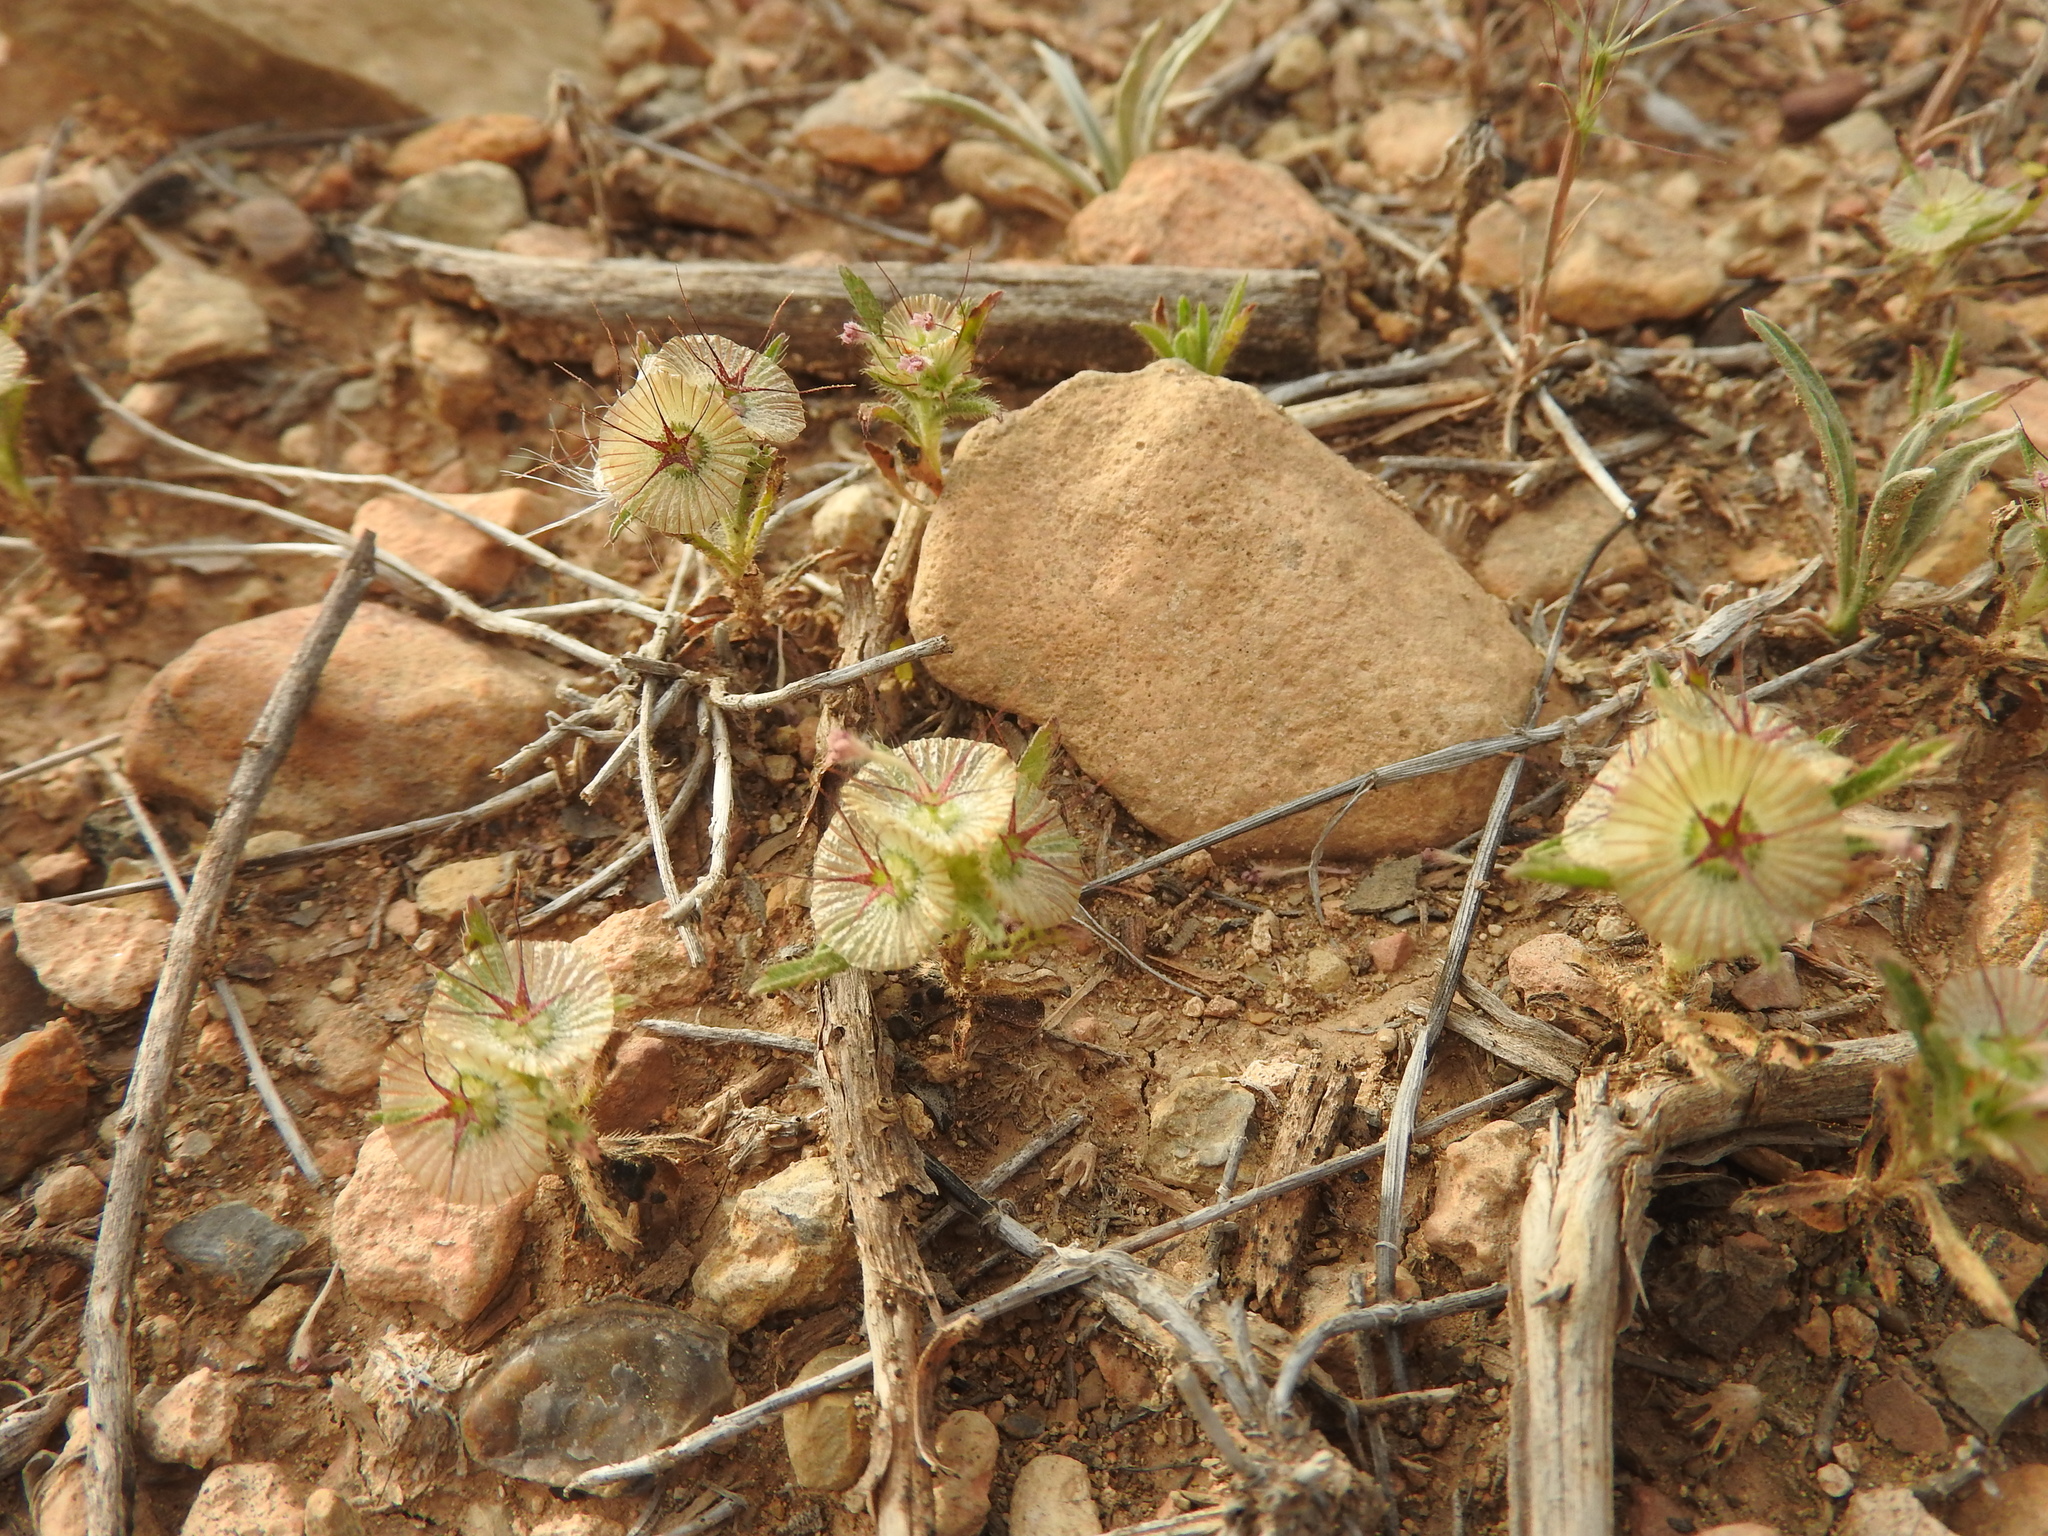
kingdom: Plantae
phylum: Tracheophyta
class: Magnoliopsida
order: Dipsacales
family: Caprifoliaceae
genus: Lomelosia
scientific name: Lomelosia stellata
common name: Teasel
